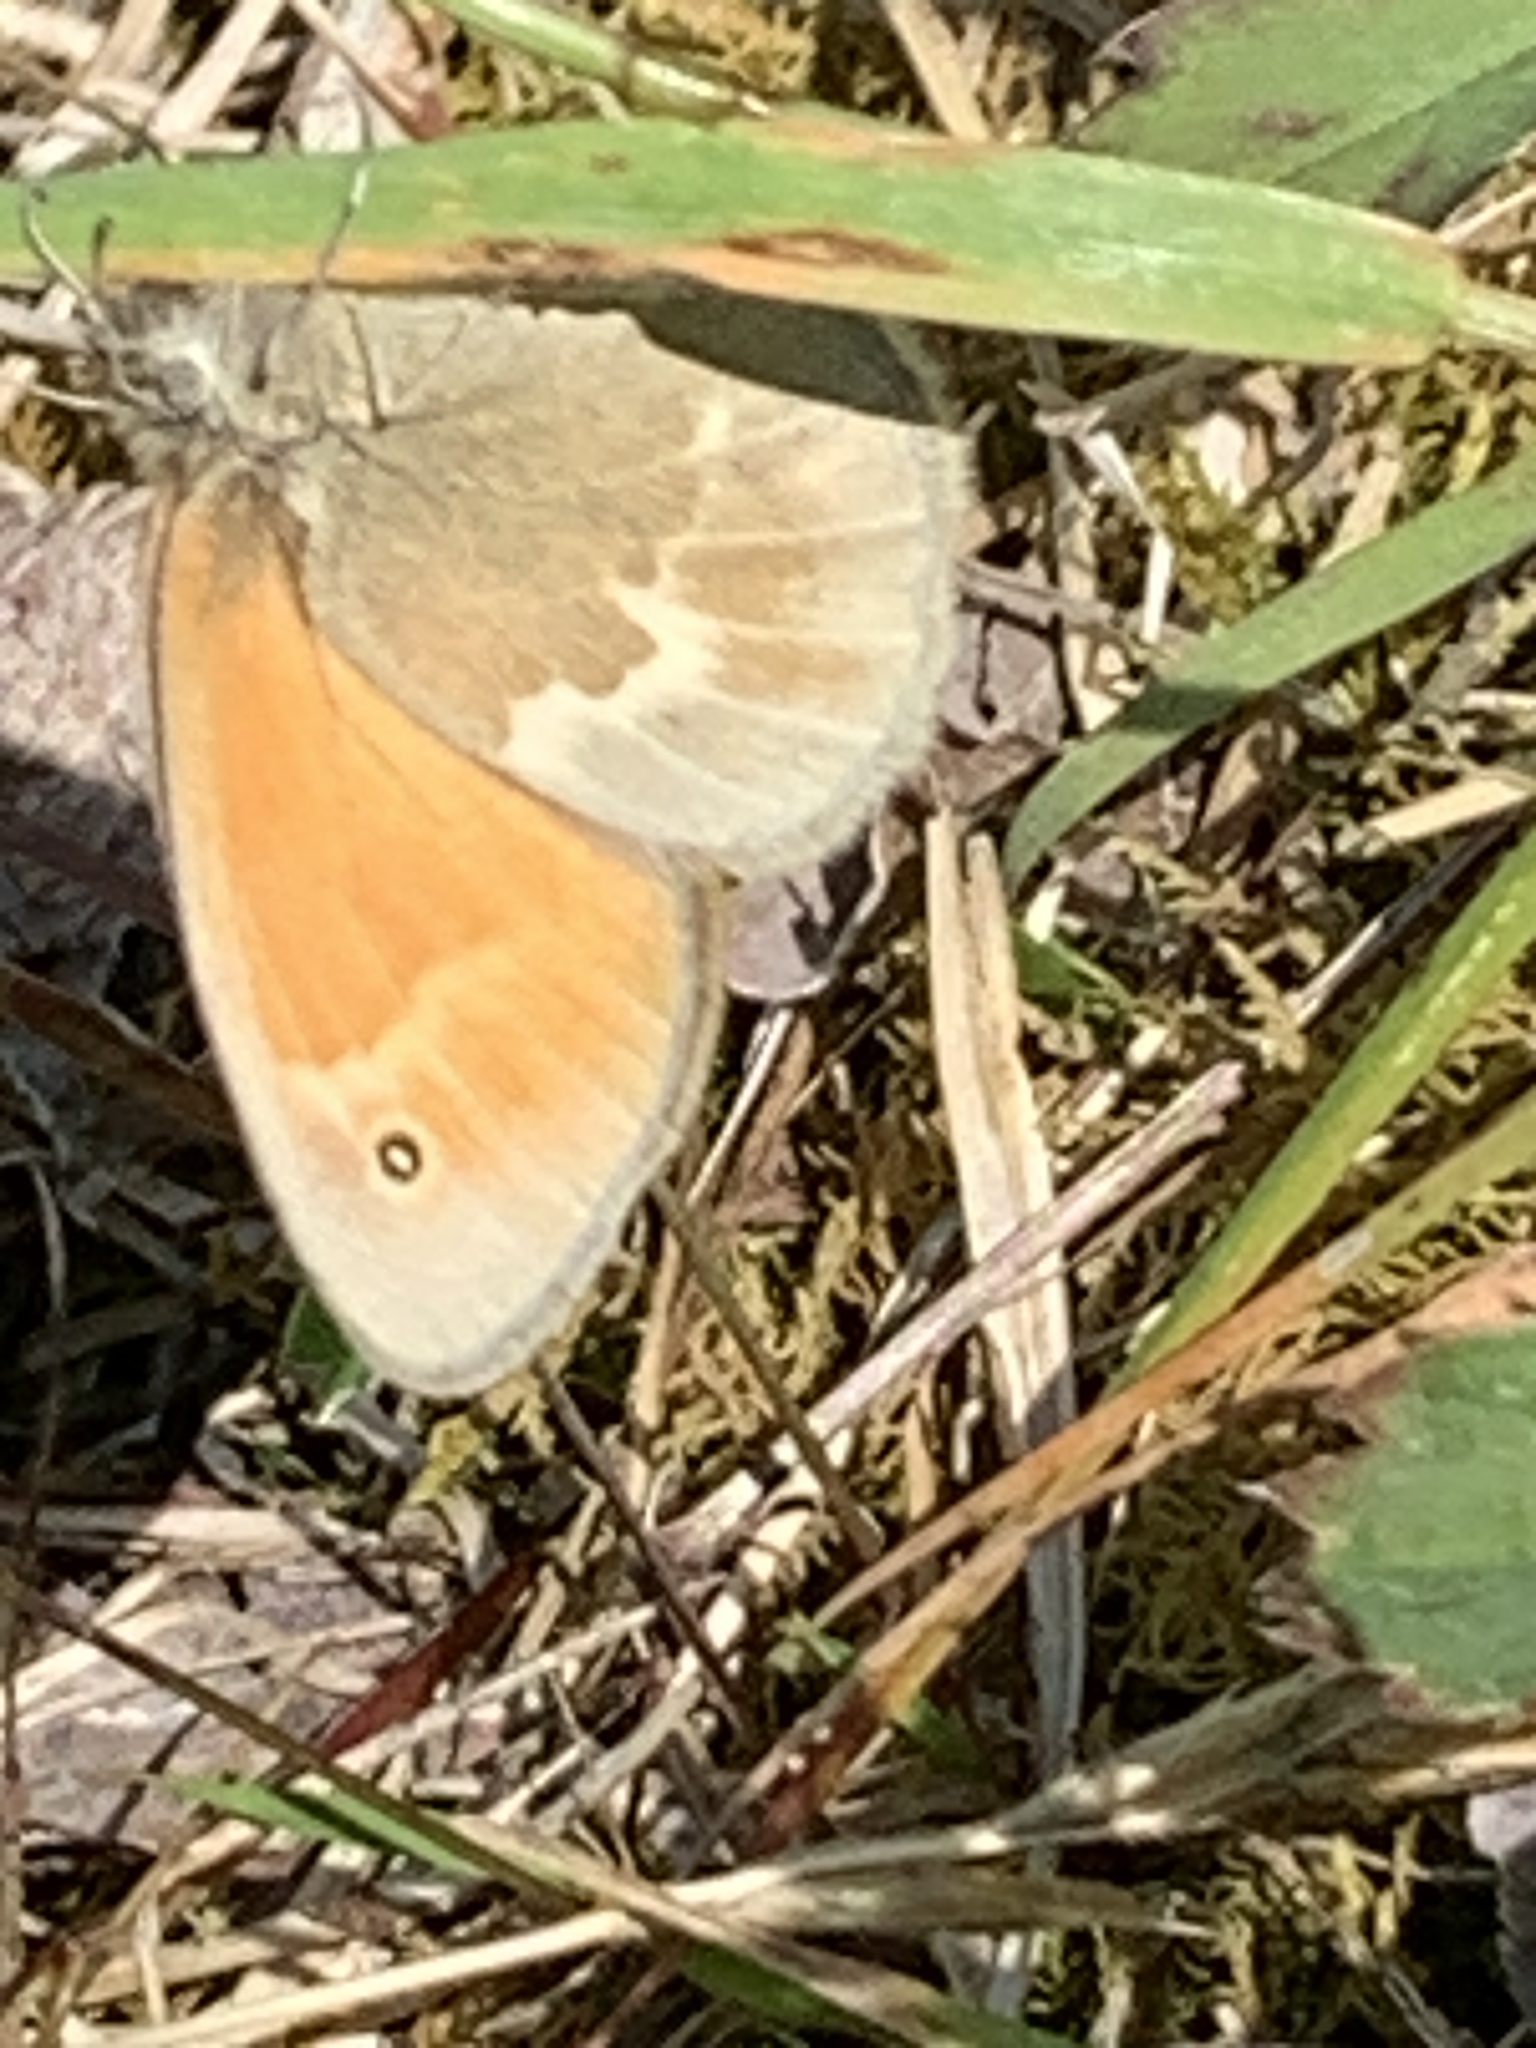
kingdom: Animalia
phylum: Arthropoda
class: Insecta
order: Lepidoptera
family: Nymphalidae
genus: Coenonympha
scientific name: Coenonympha california
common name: Common ringlet
